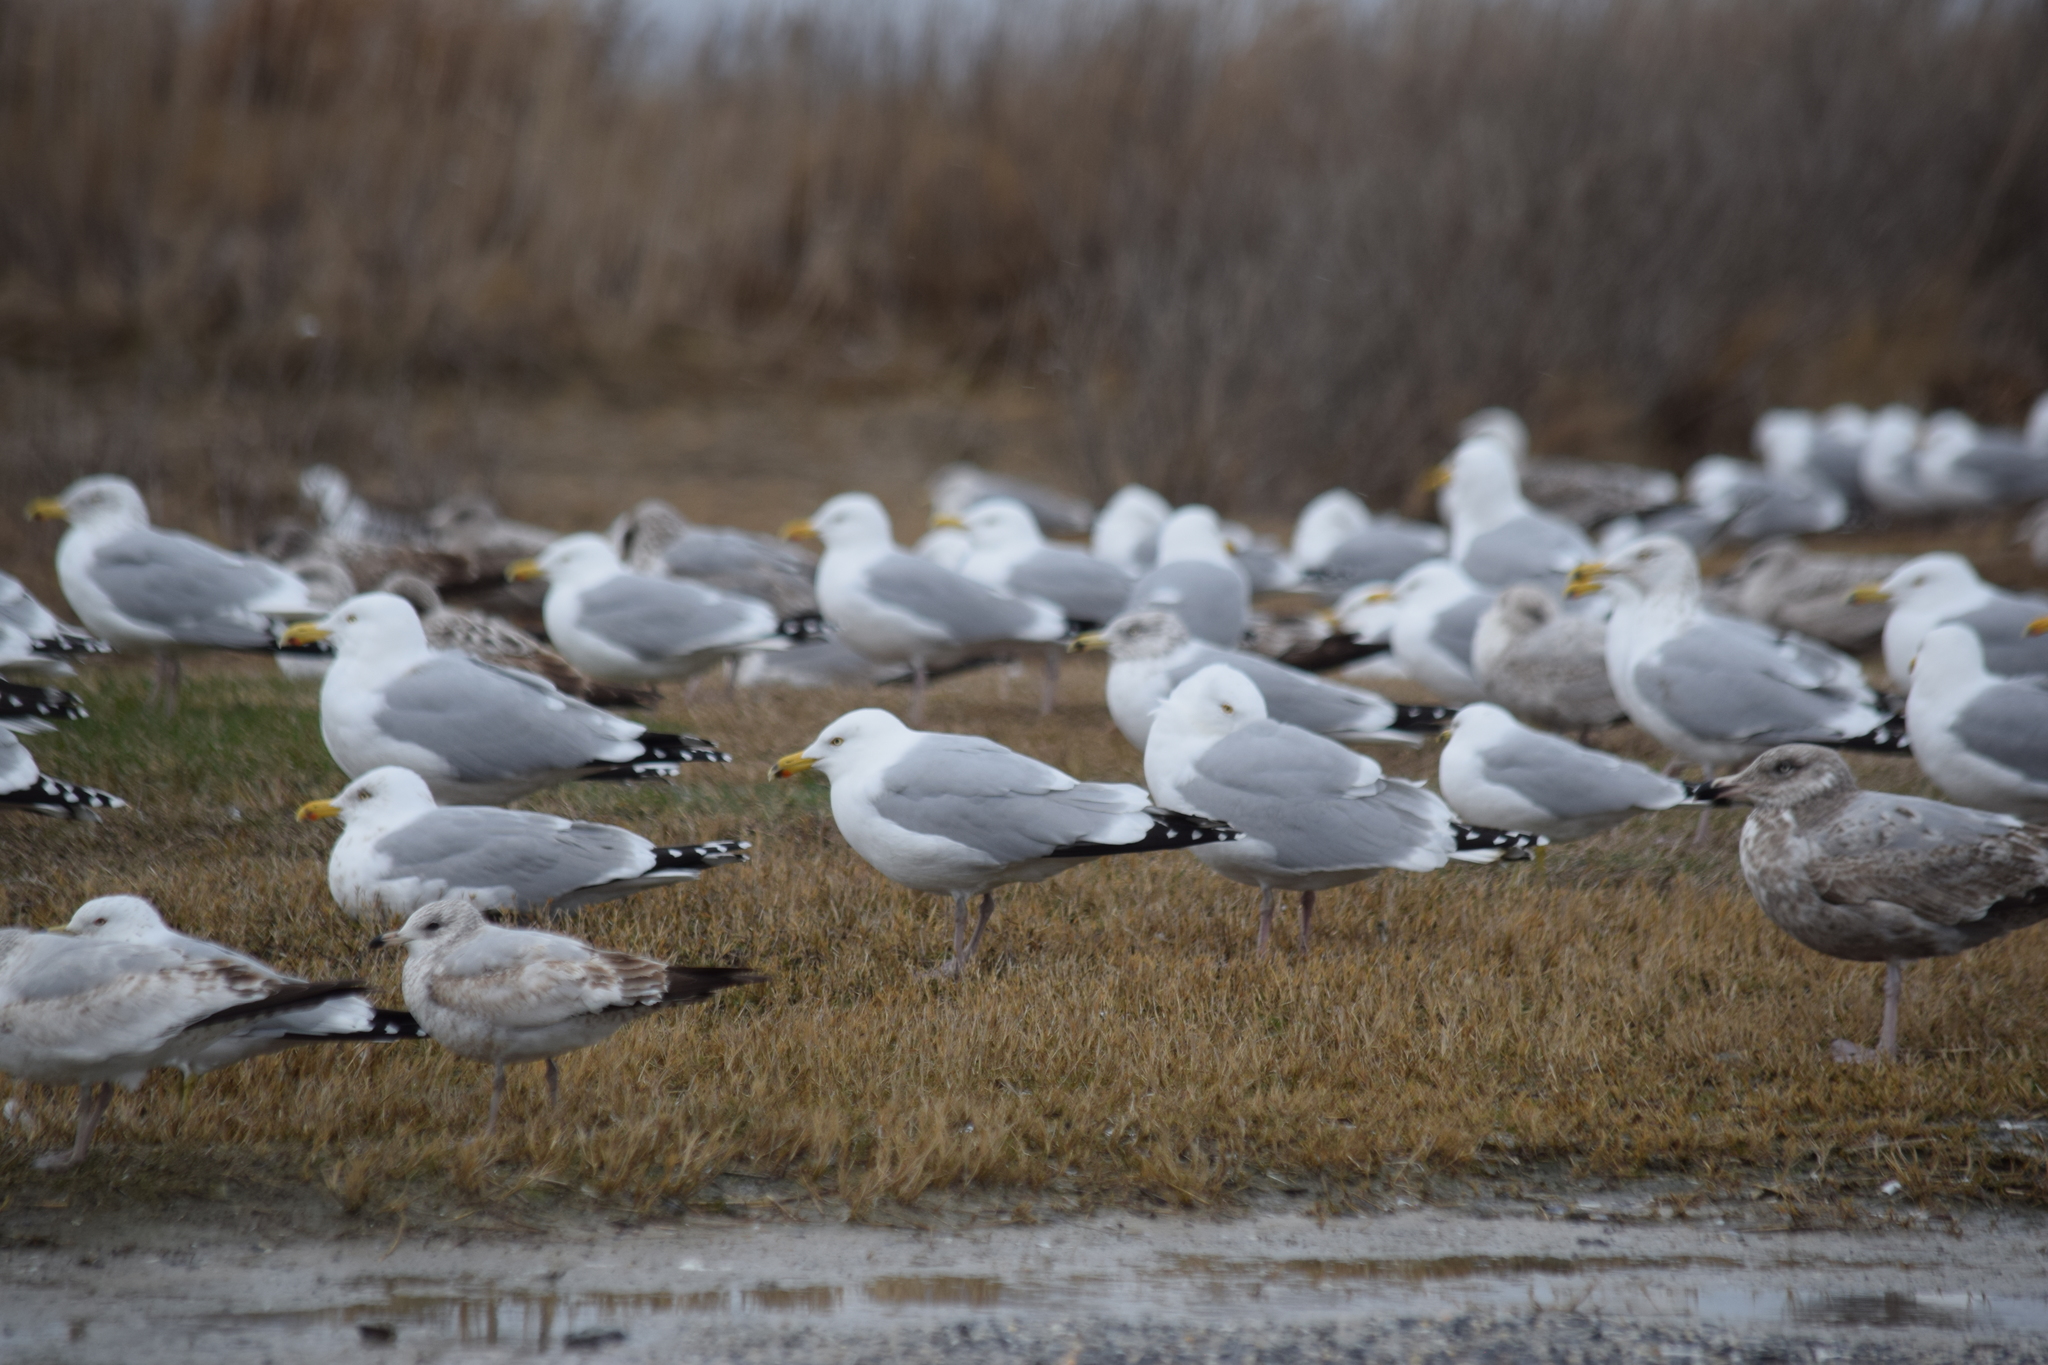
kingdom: Animalia
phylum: Chordata
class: Aves
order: Charadriiformes
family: Laridae
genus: Larus
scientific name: Larus argentatus
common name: Herring gull
